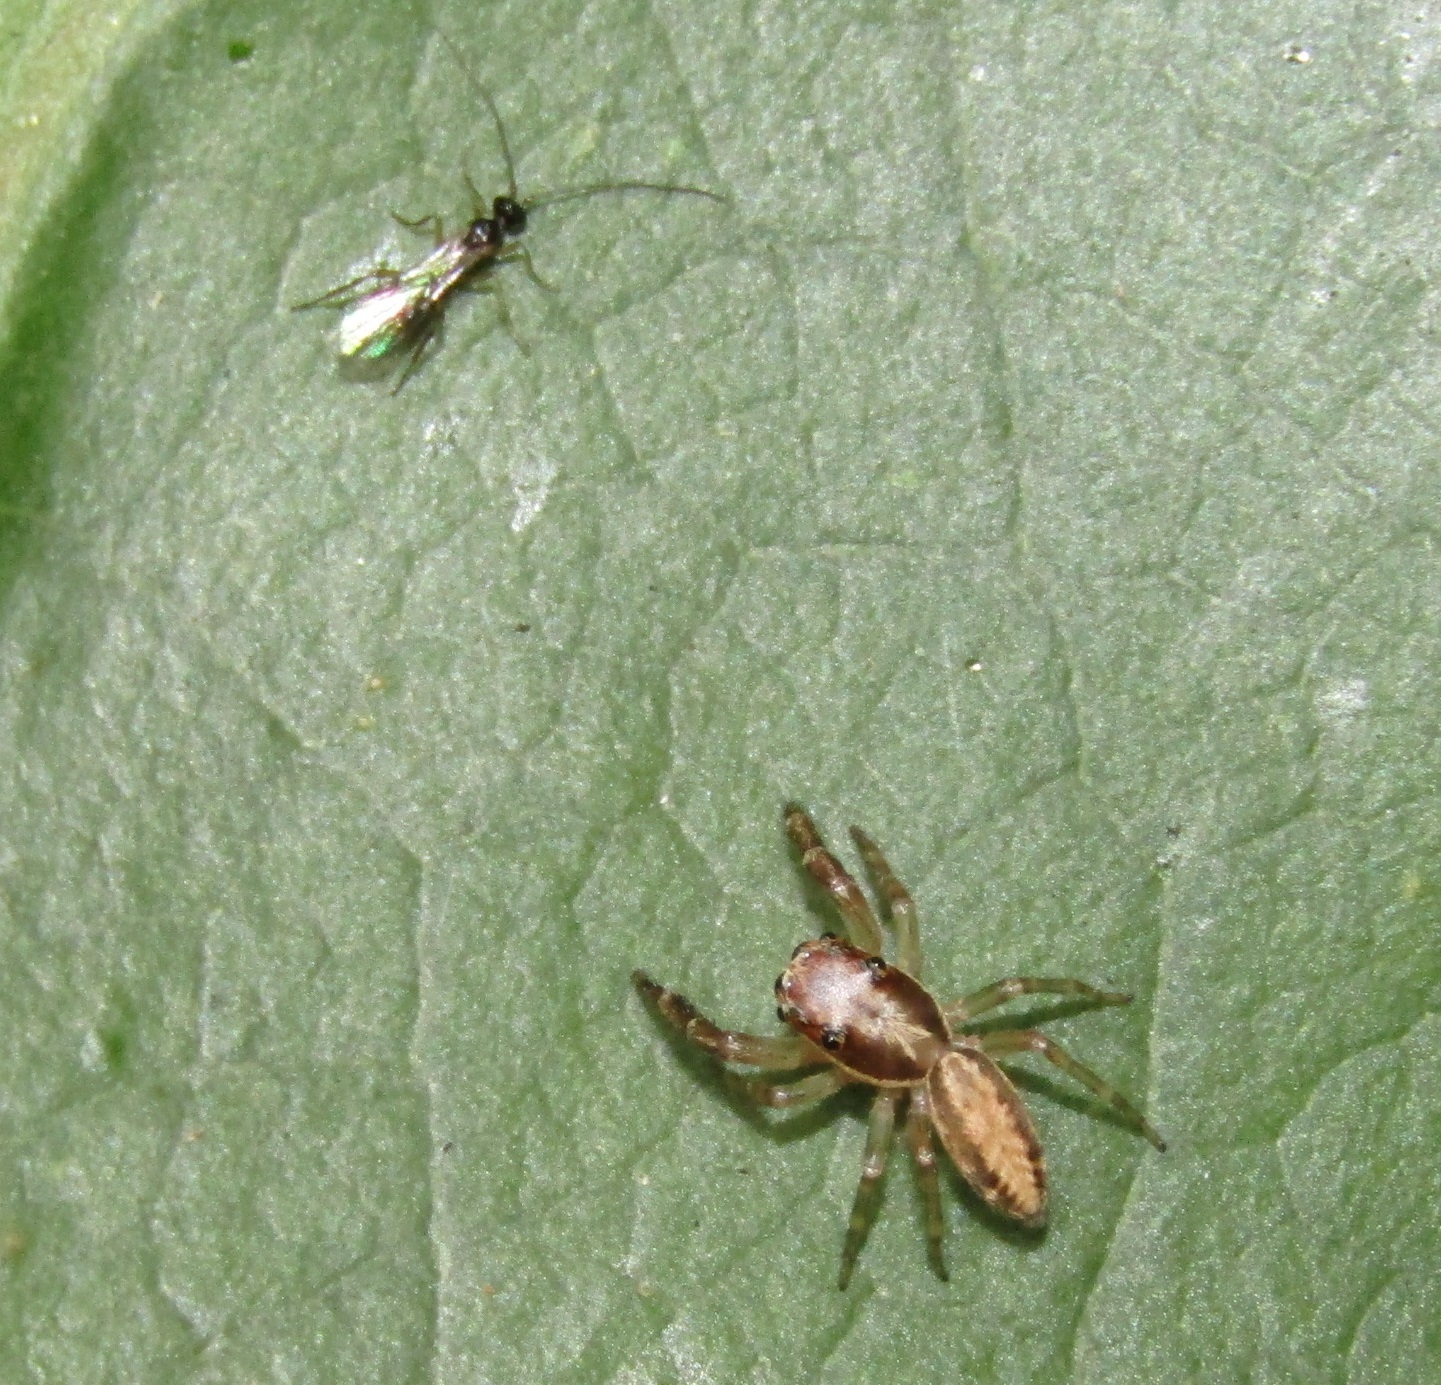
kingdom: Animalia
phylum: Arthropoda
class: Arachnida
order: Araneae
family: Salticidae
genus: Trite
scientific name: Trite mustilina
